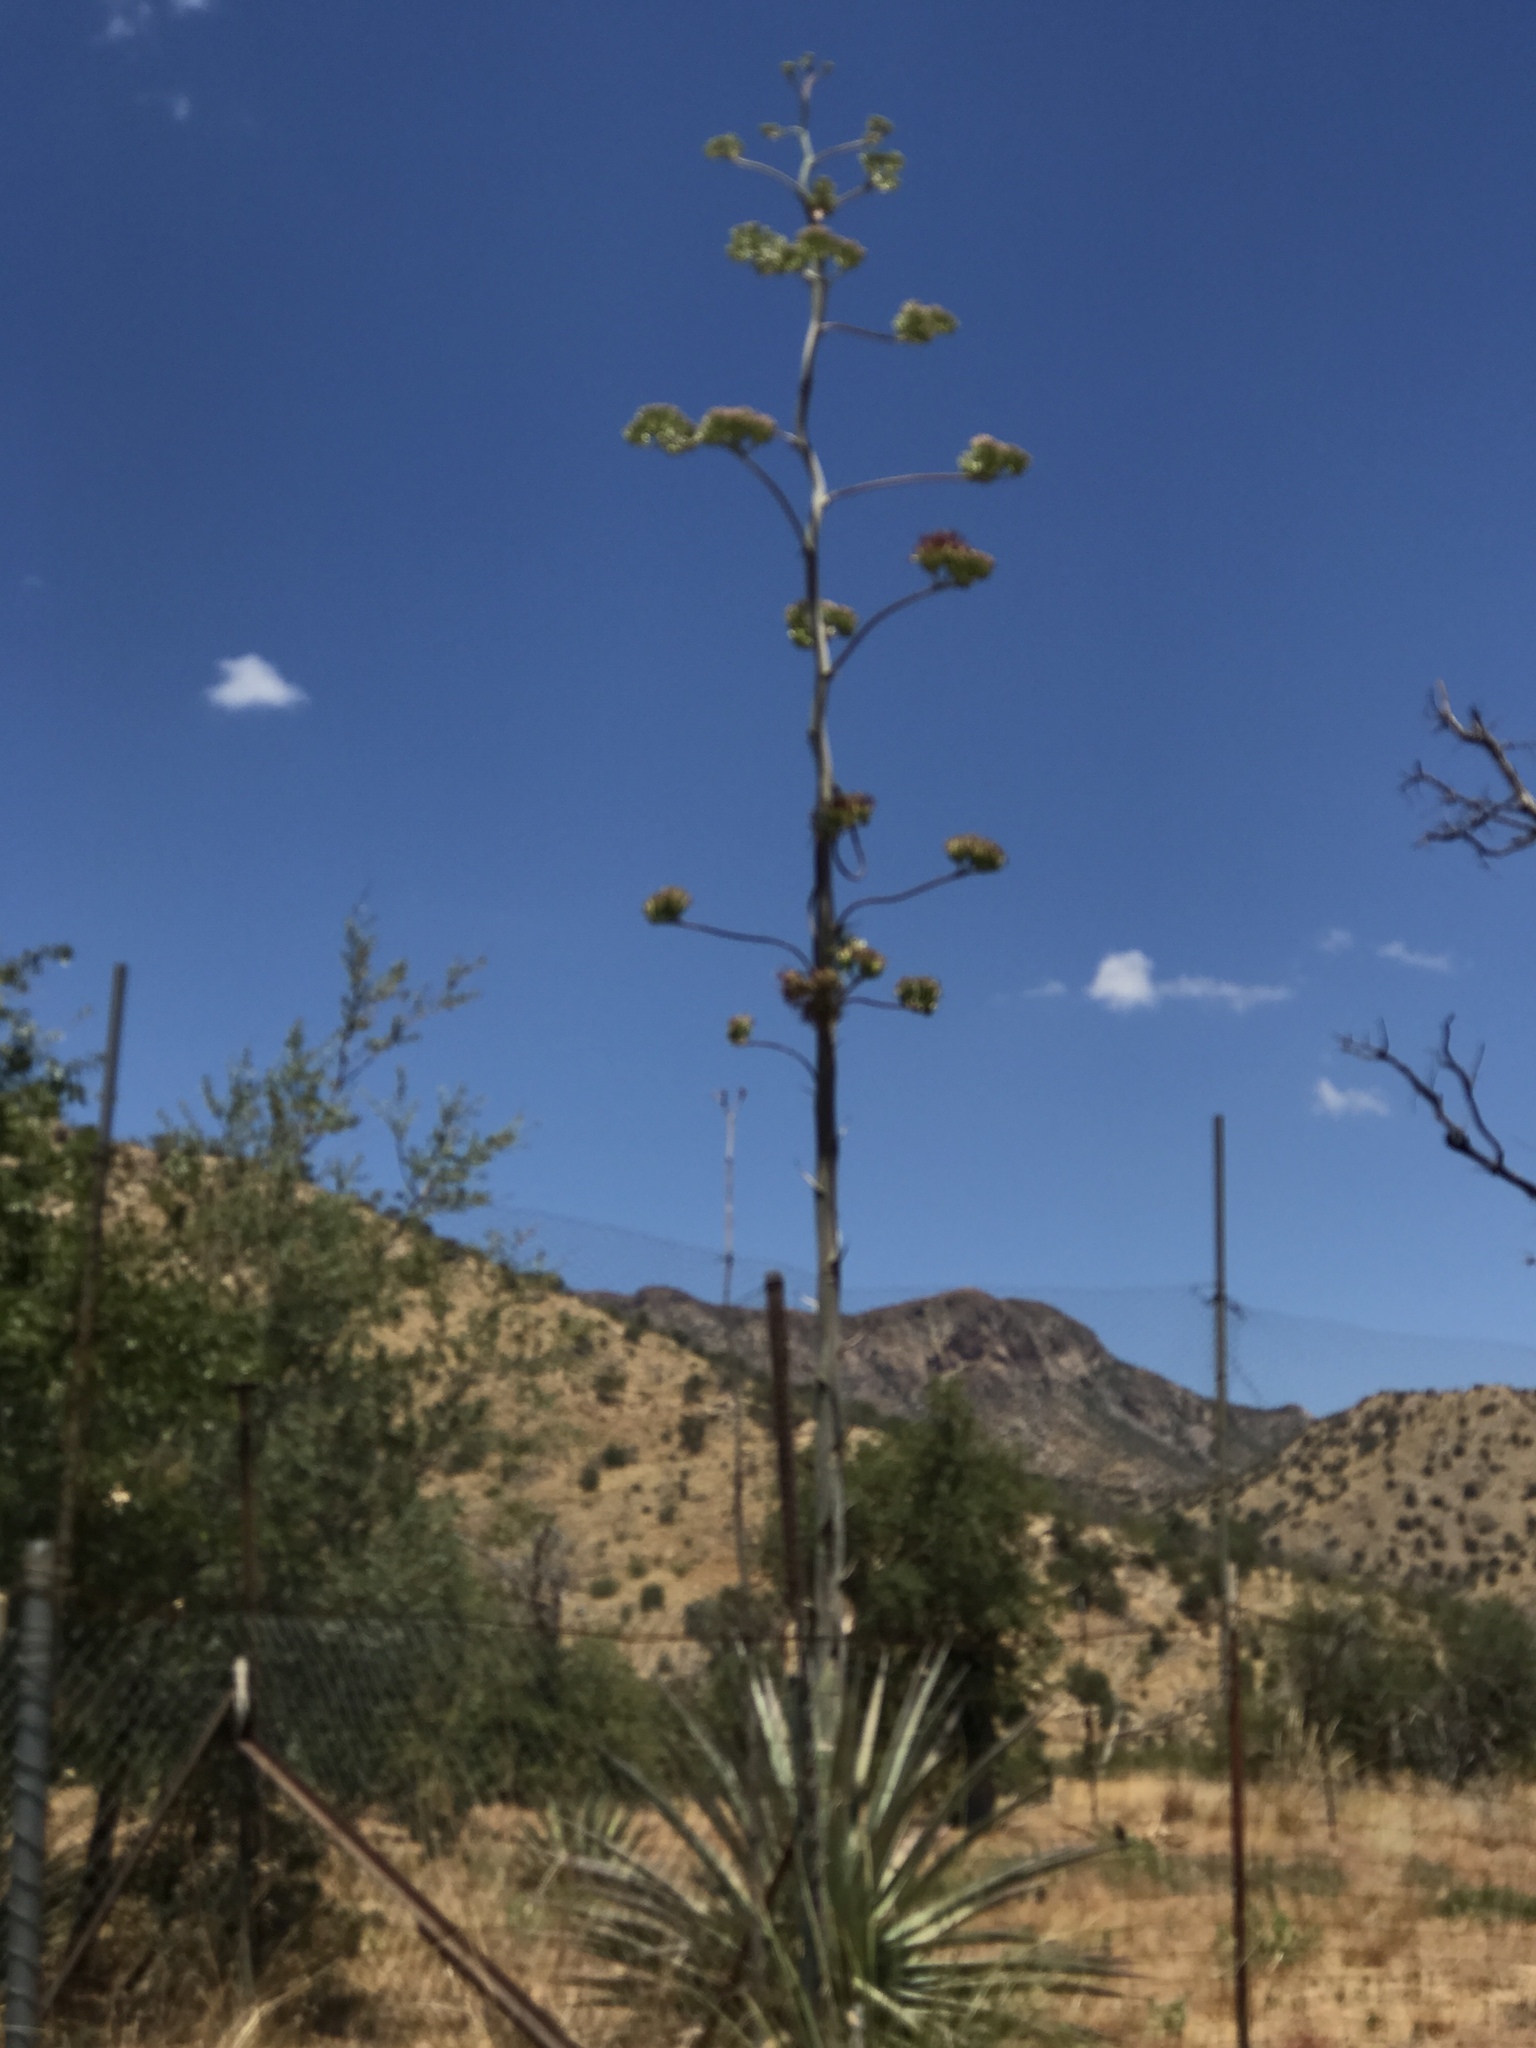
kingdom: Plantae
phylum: Tracheophyta
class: Liliopsida
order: Asparagales
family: Asparagaceae
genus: Agave
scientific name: Agave palmeri
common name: Palmer agave
